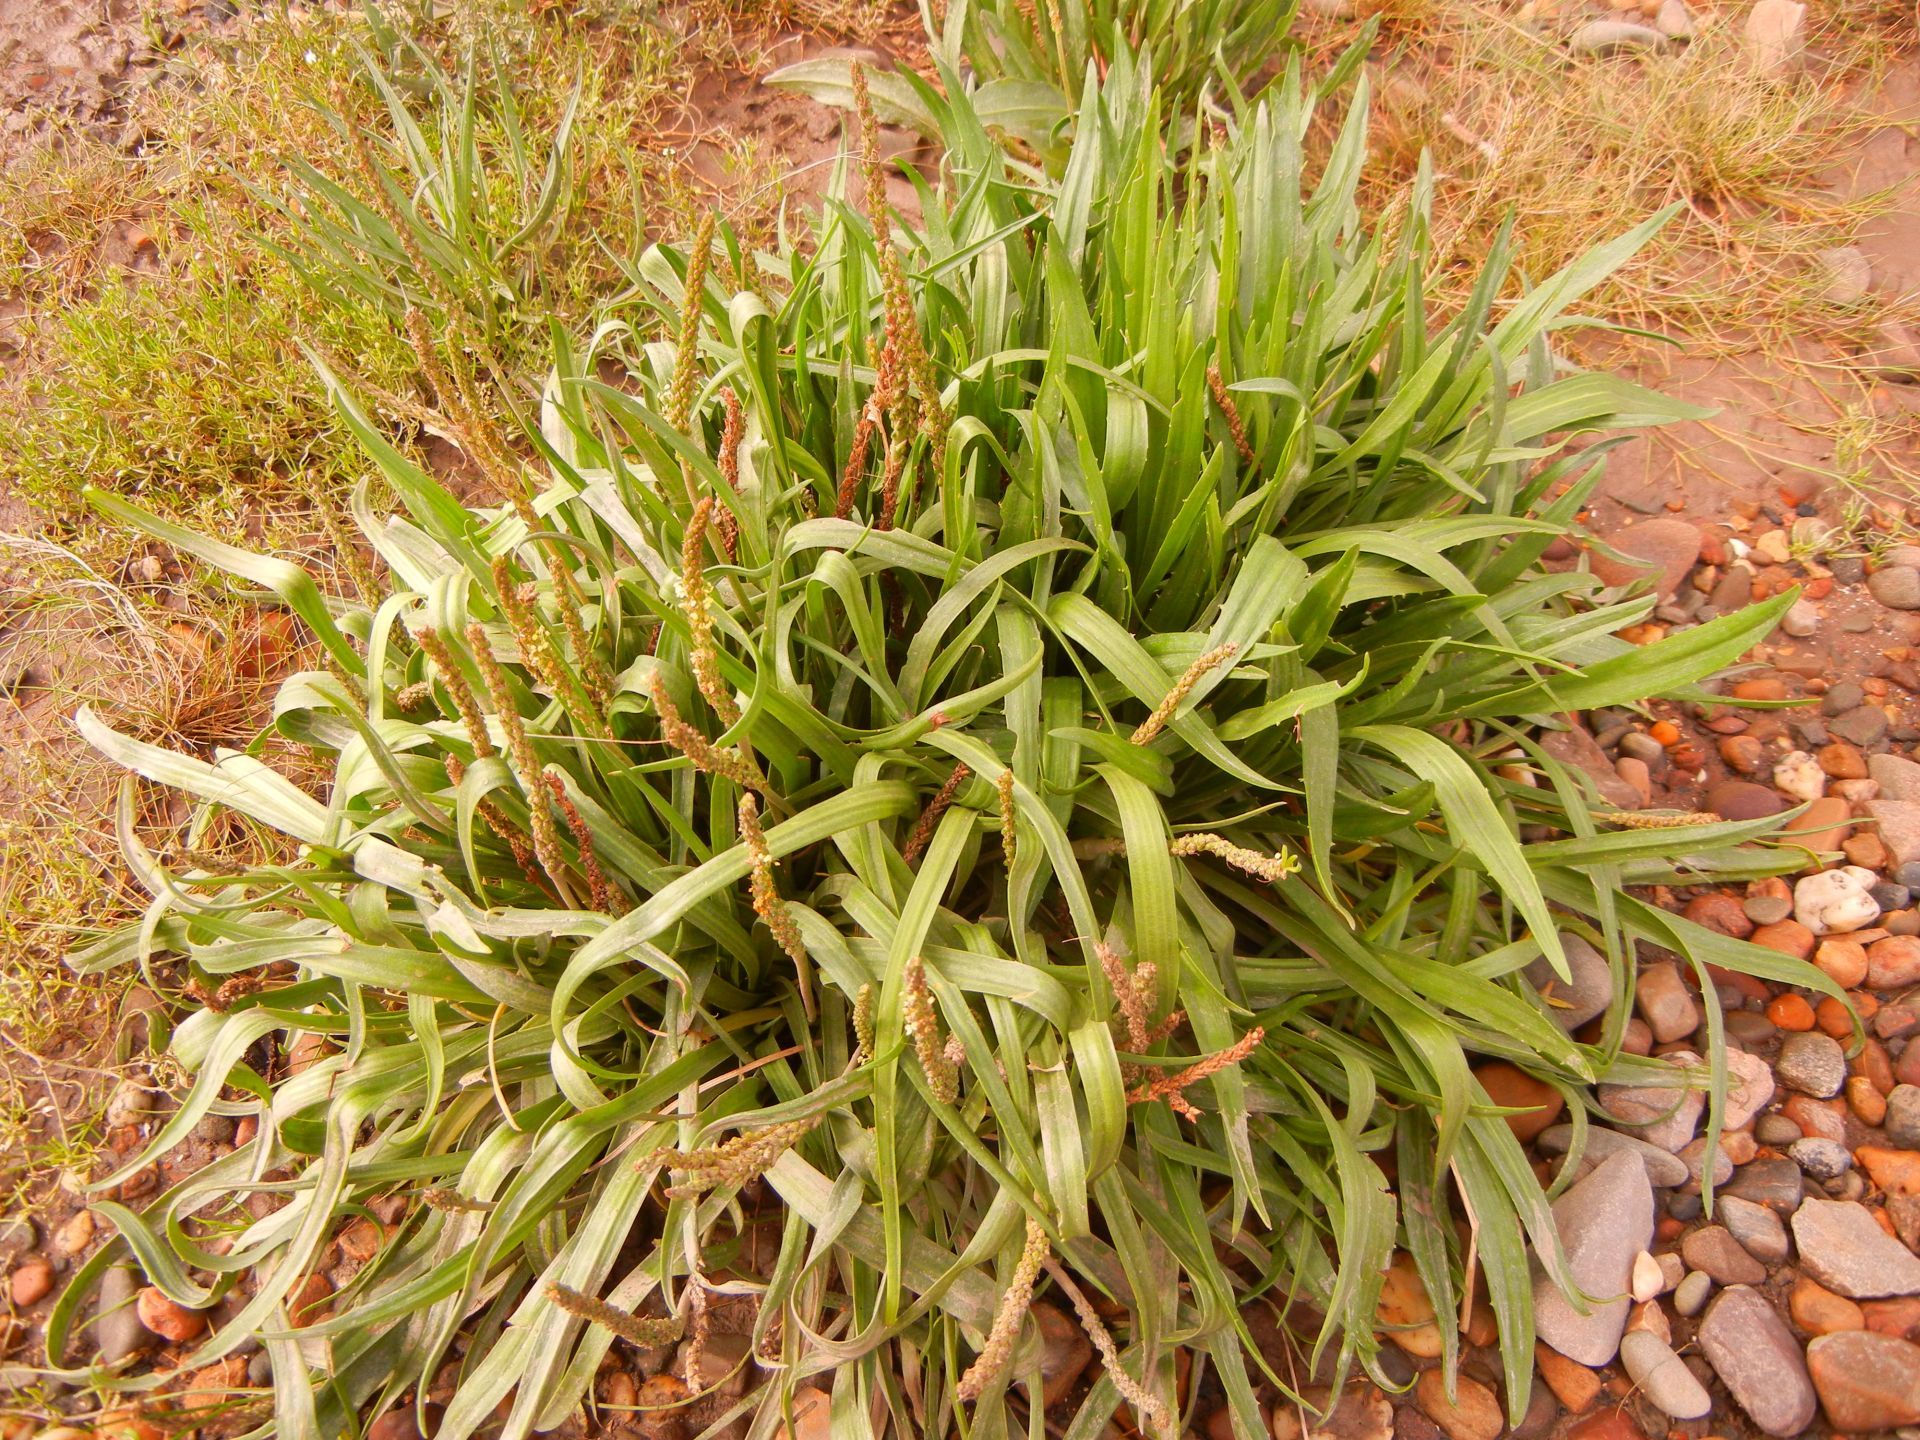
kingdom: Plantae
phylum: Tracheophyta
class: Magnoliopsida
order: Lamiales
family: Plantaginaceae
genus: Plantago
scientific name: Plantago maritima
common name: Sea plantain
